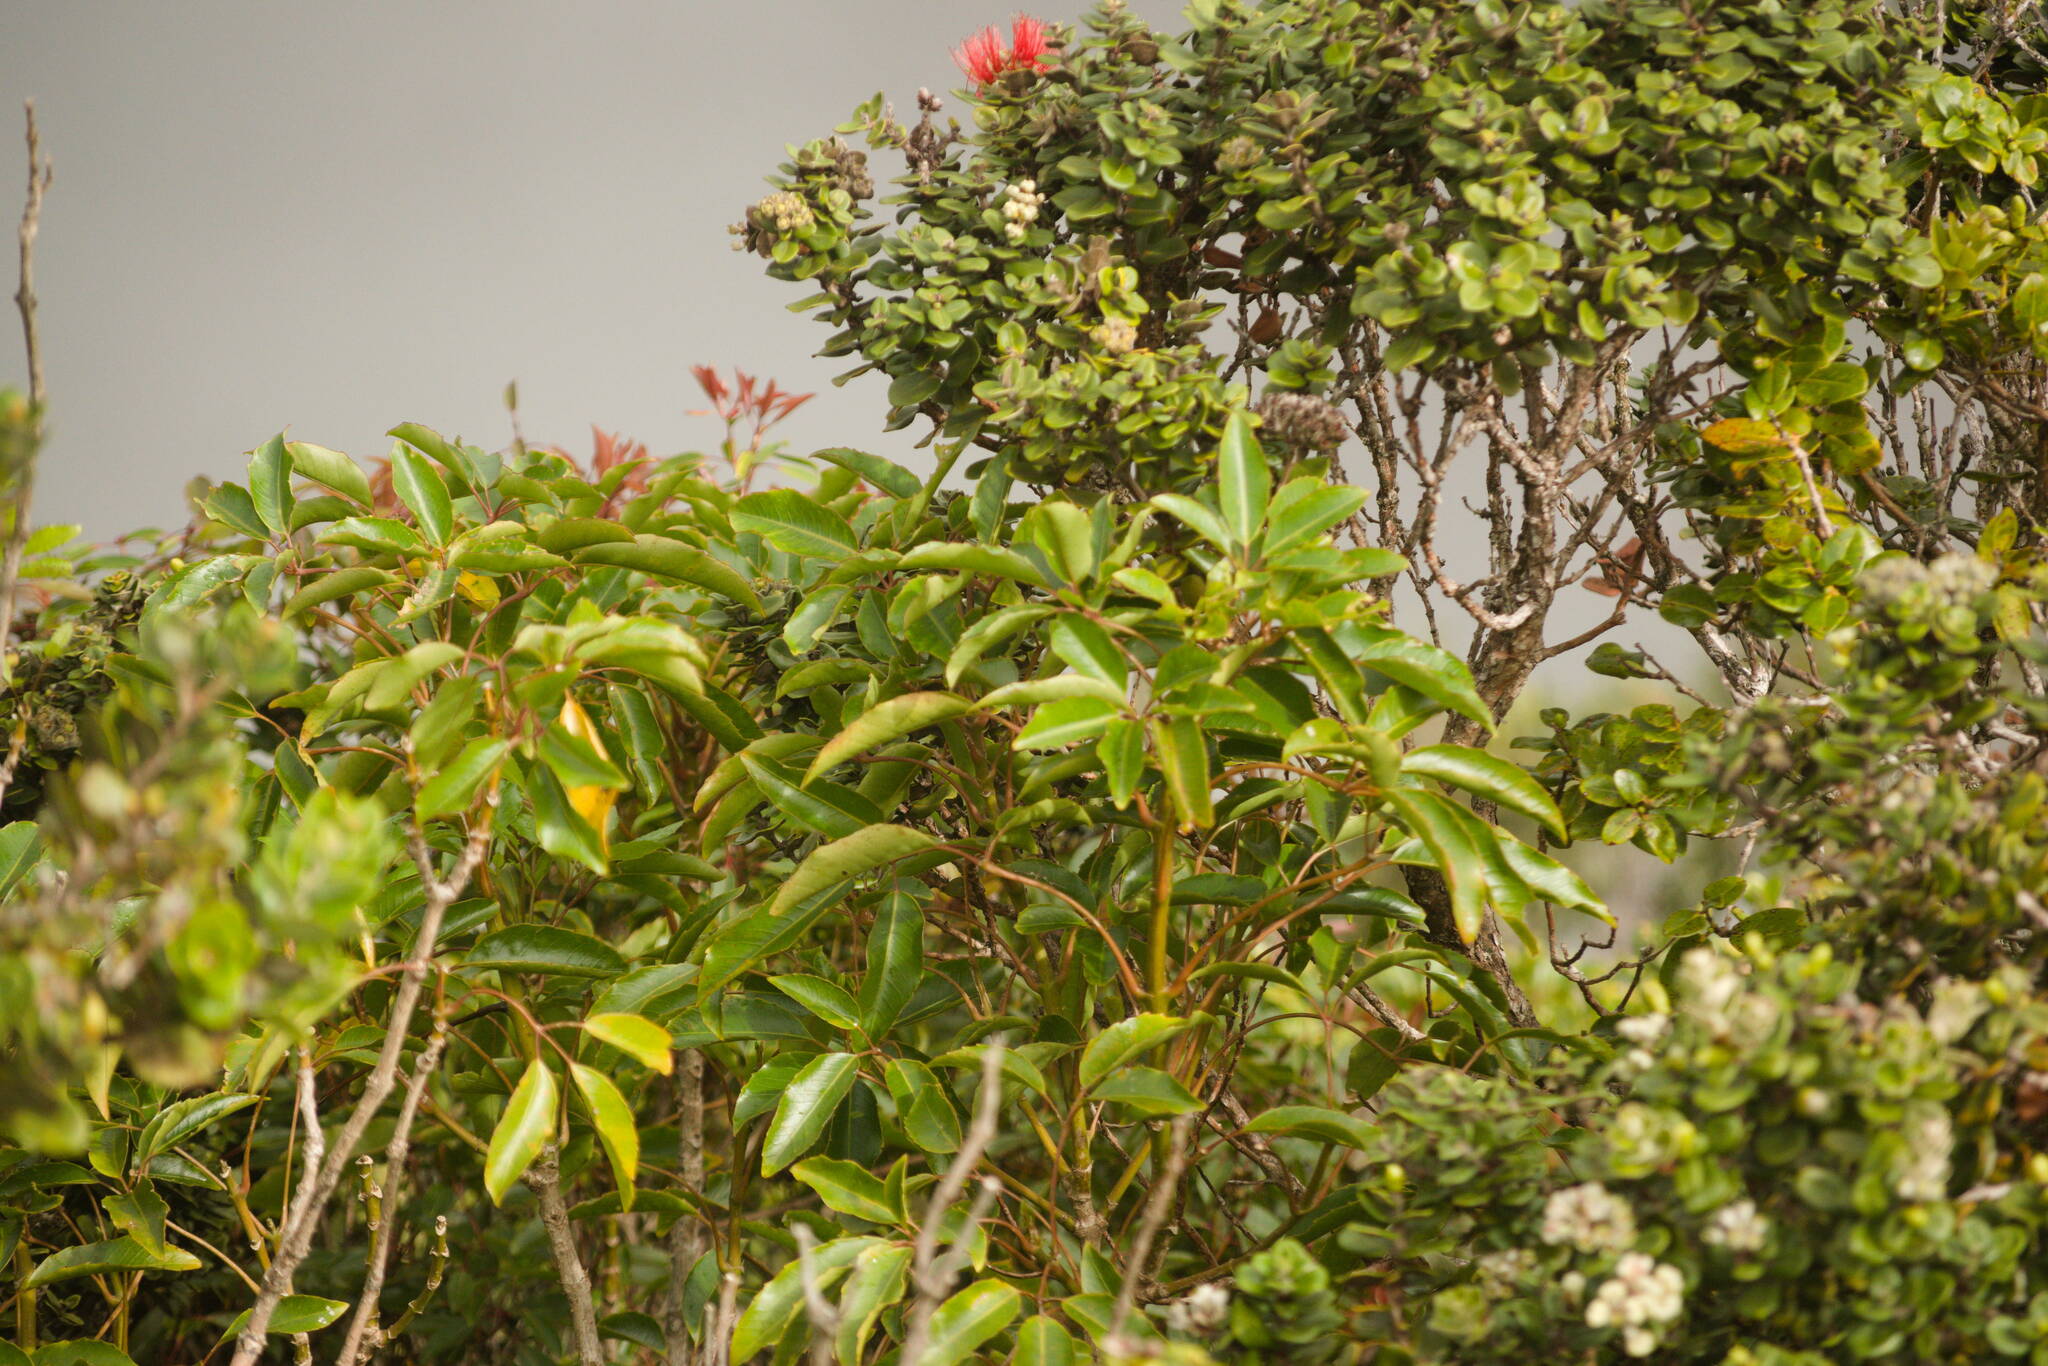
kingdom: Plantae
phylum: Tracheophyta
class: Magnoliopsida
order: Apiales
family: Araliaceae
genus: Cheirodendron
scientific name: Cheirodendron trigynum
